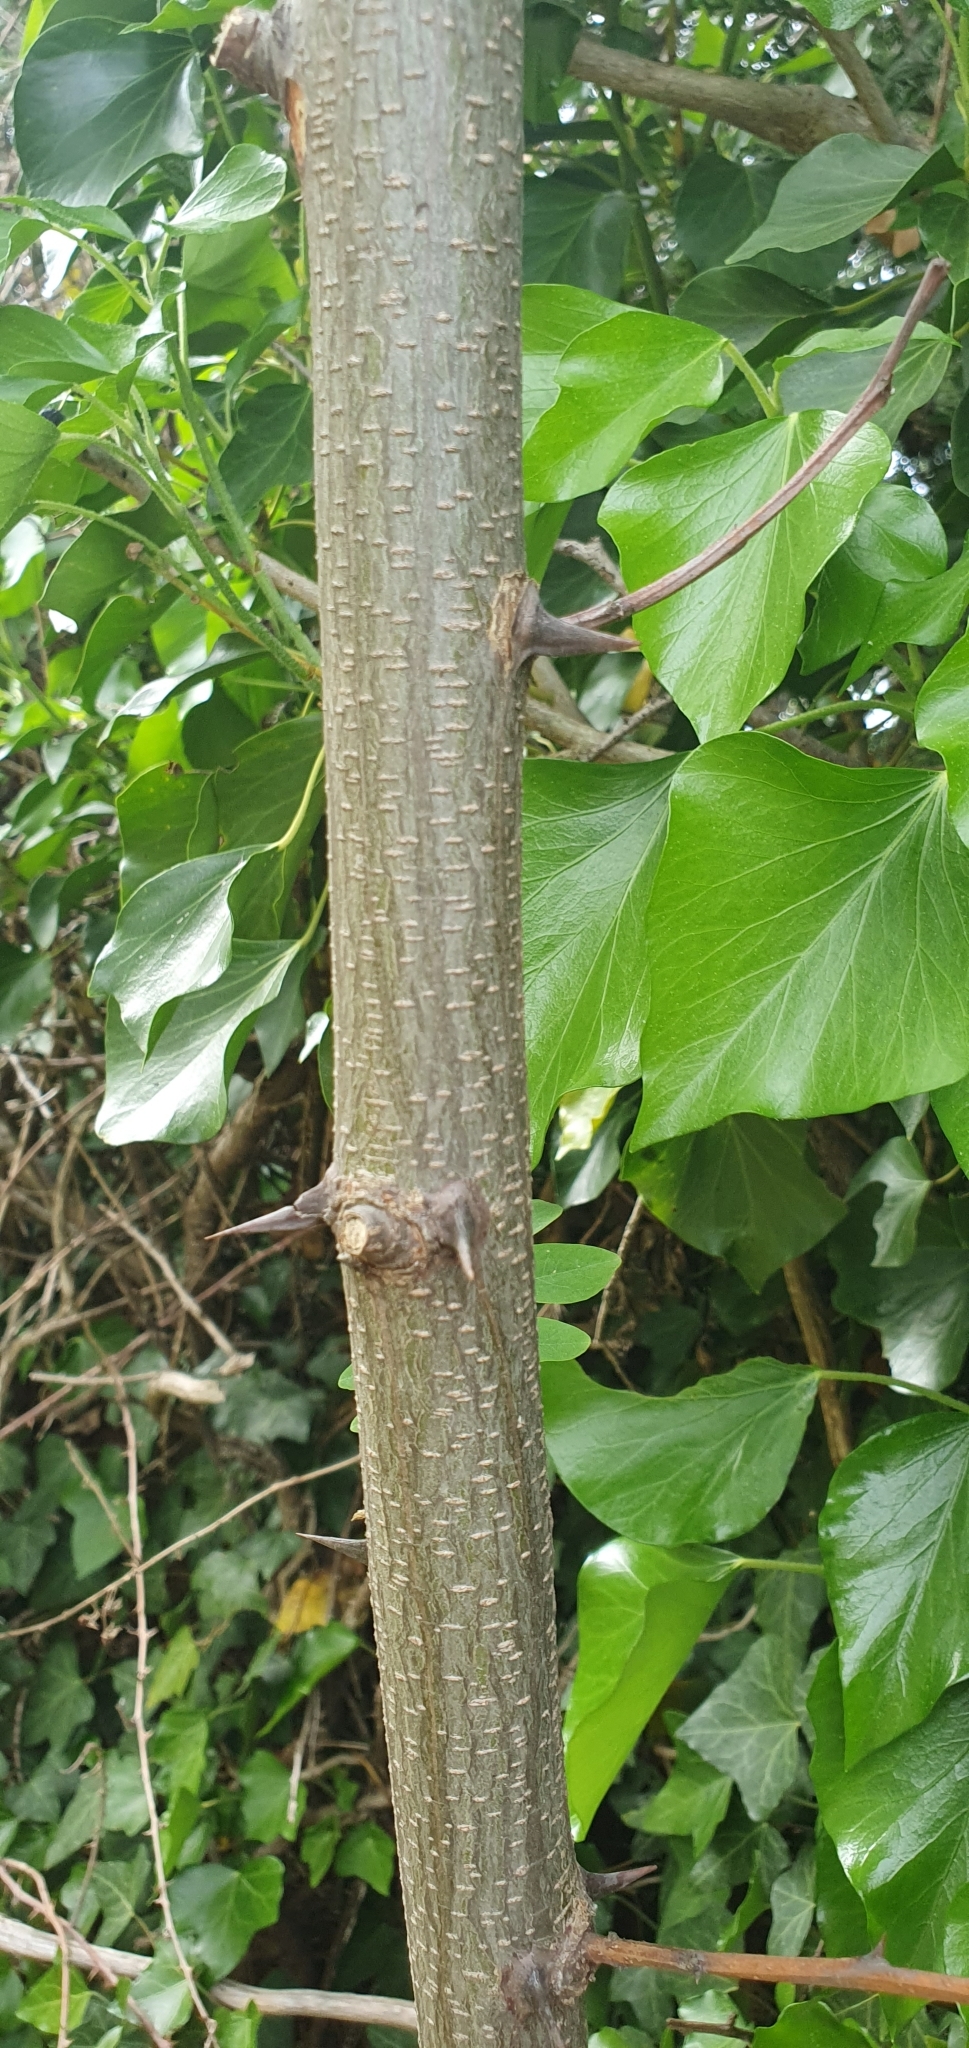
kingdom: Plantae
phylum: Tracheophyta
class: Magnoliopsida
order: Fabales
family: Fabaceae
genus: Robinia
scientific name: Robinia pseudoacacia
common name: Black locust
